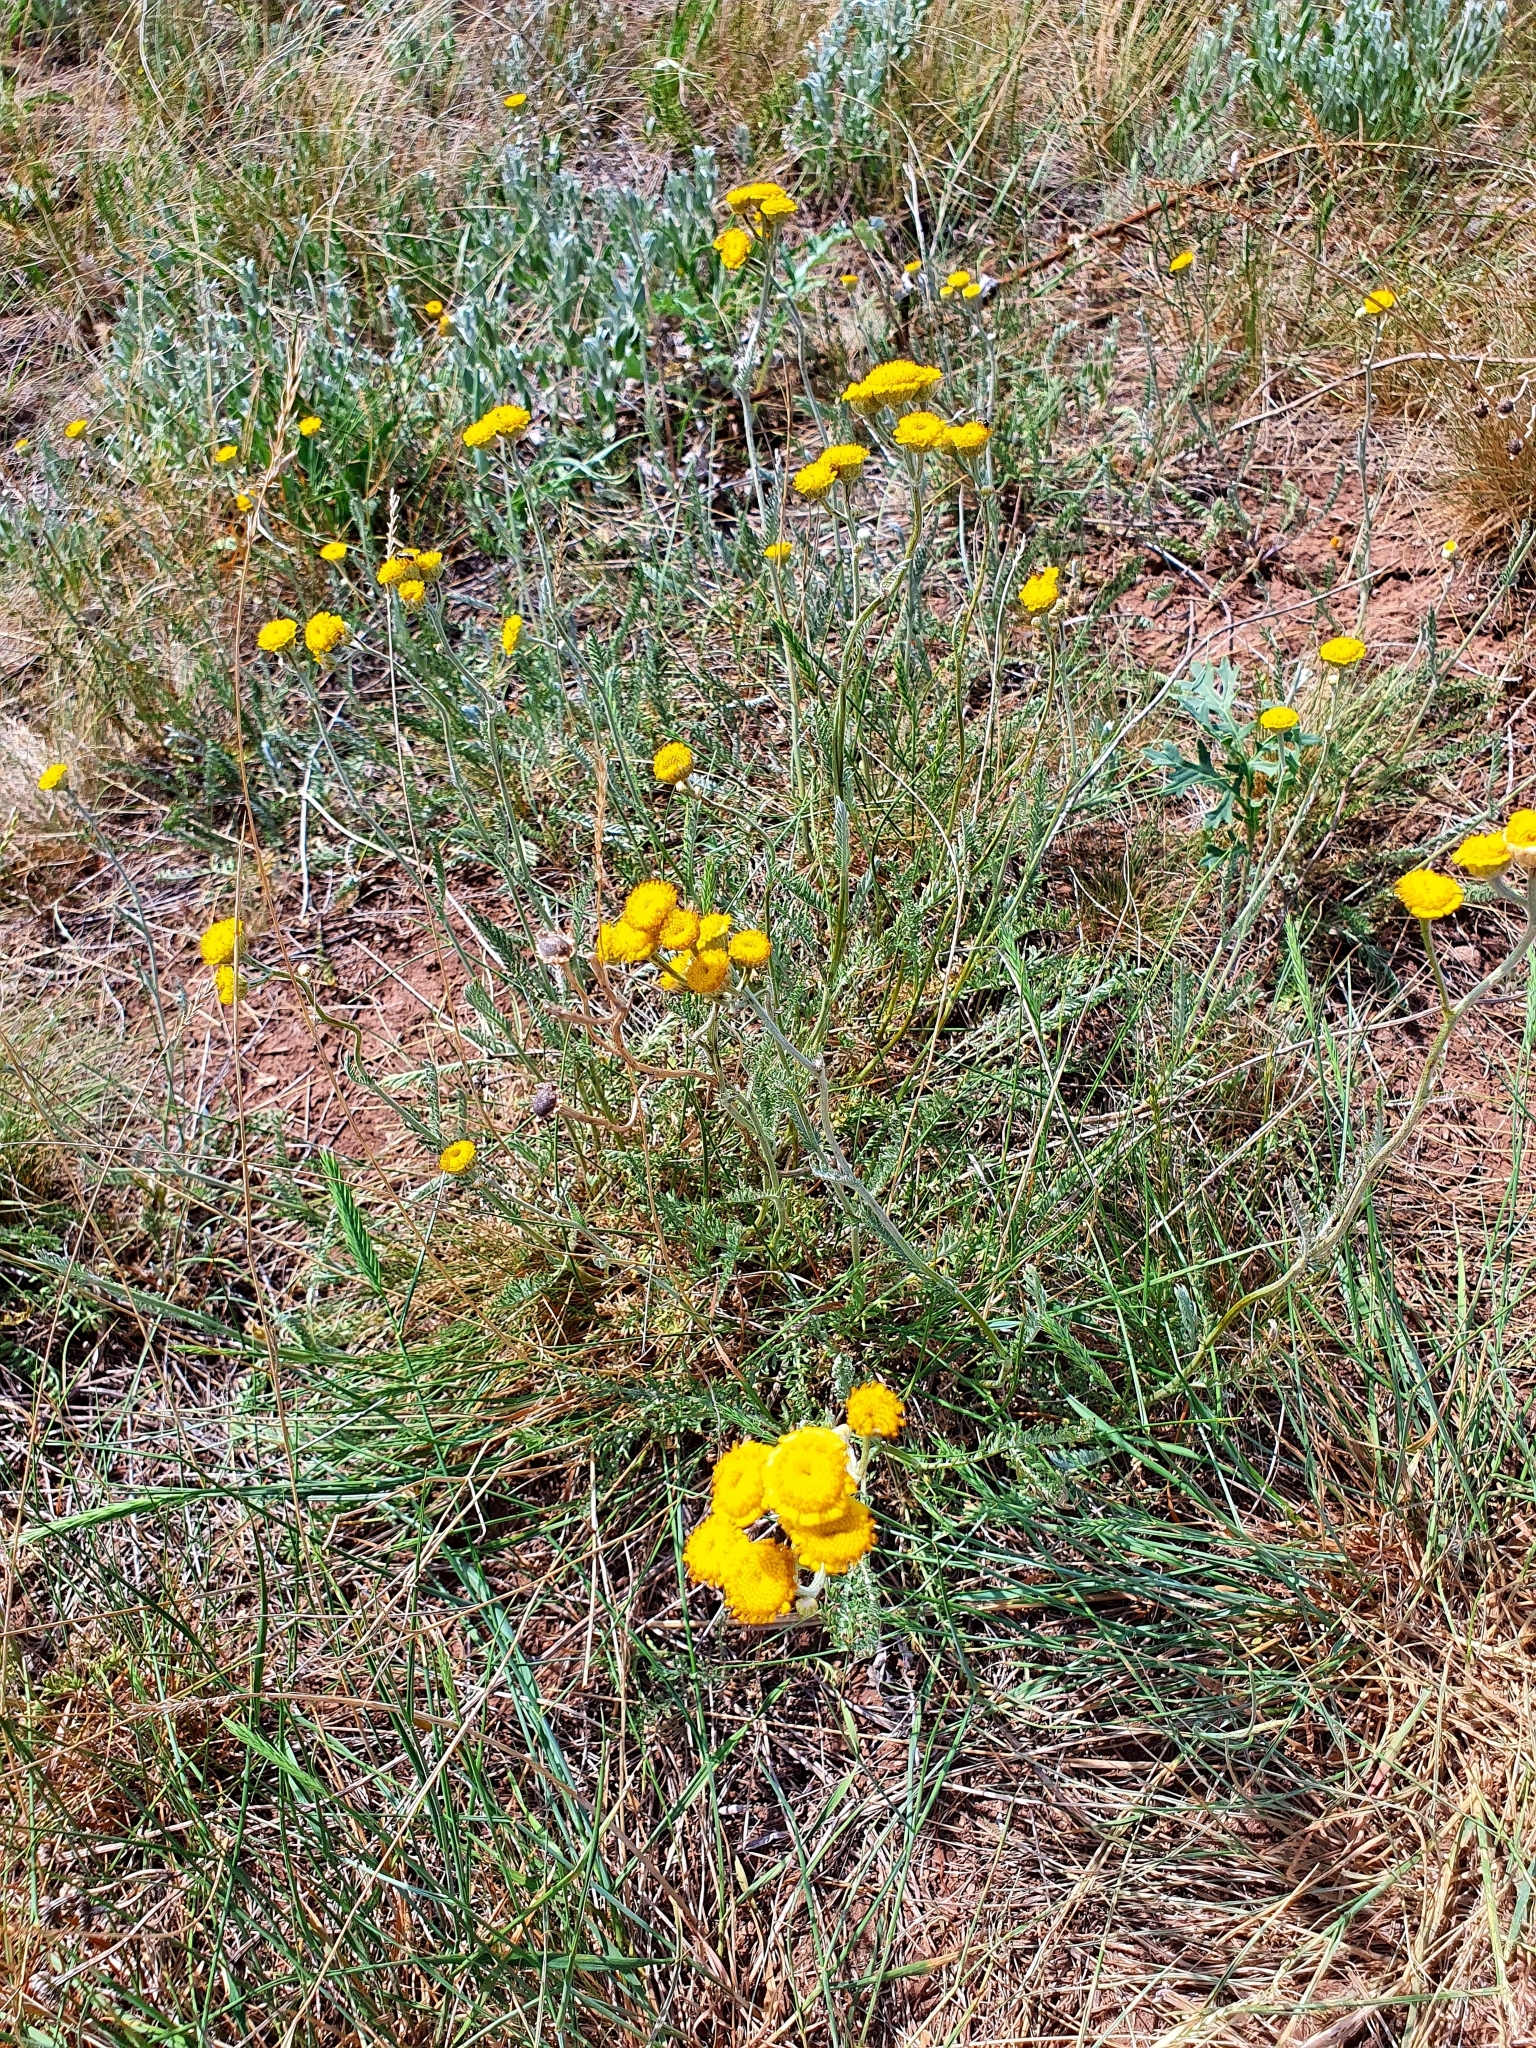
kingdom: Plantae
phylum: Tracheophyta
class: Magnoliopsida
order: Asterales
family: Asteraceae
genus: Tanacetum
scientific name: Tanacetum millefolium
